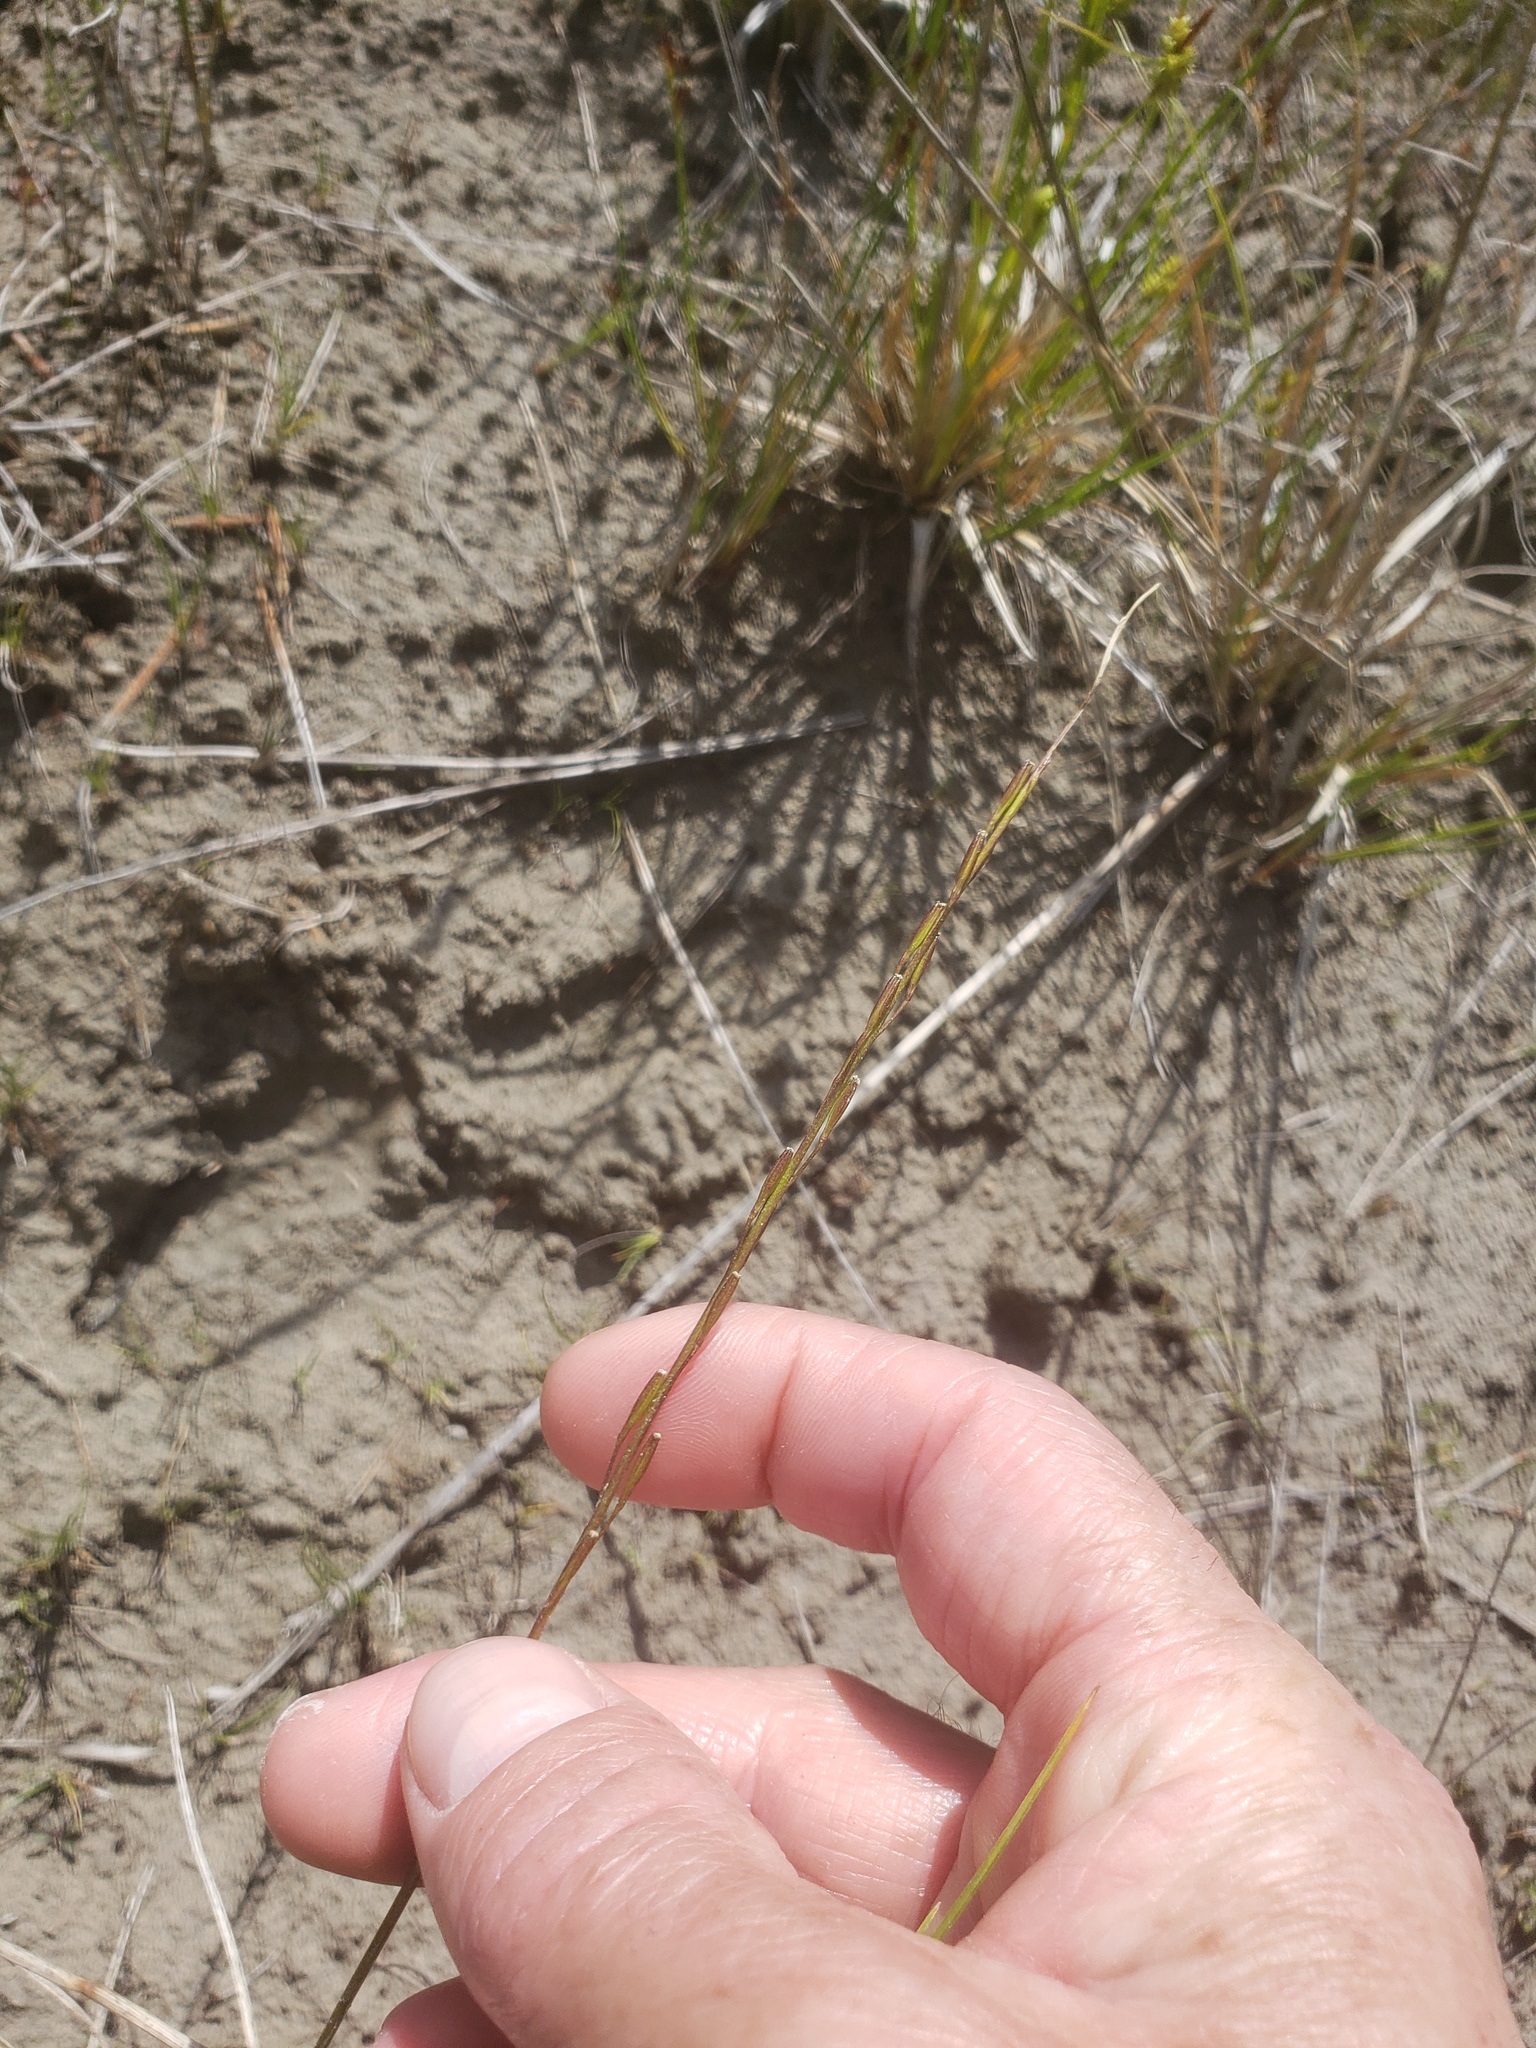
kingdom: Plantae
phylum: Tracheophyta
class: Liliopsida
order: Alismatales
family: Juncaginaceae
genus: Triglochin
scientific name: Triglochin palustris
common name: Marsh arrowgrass
